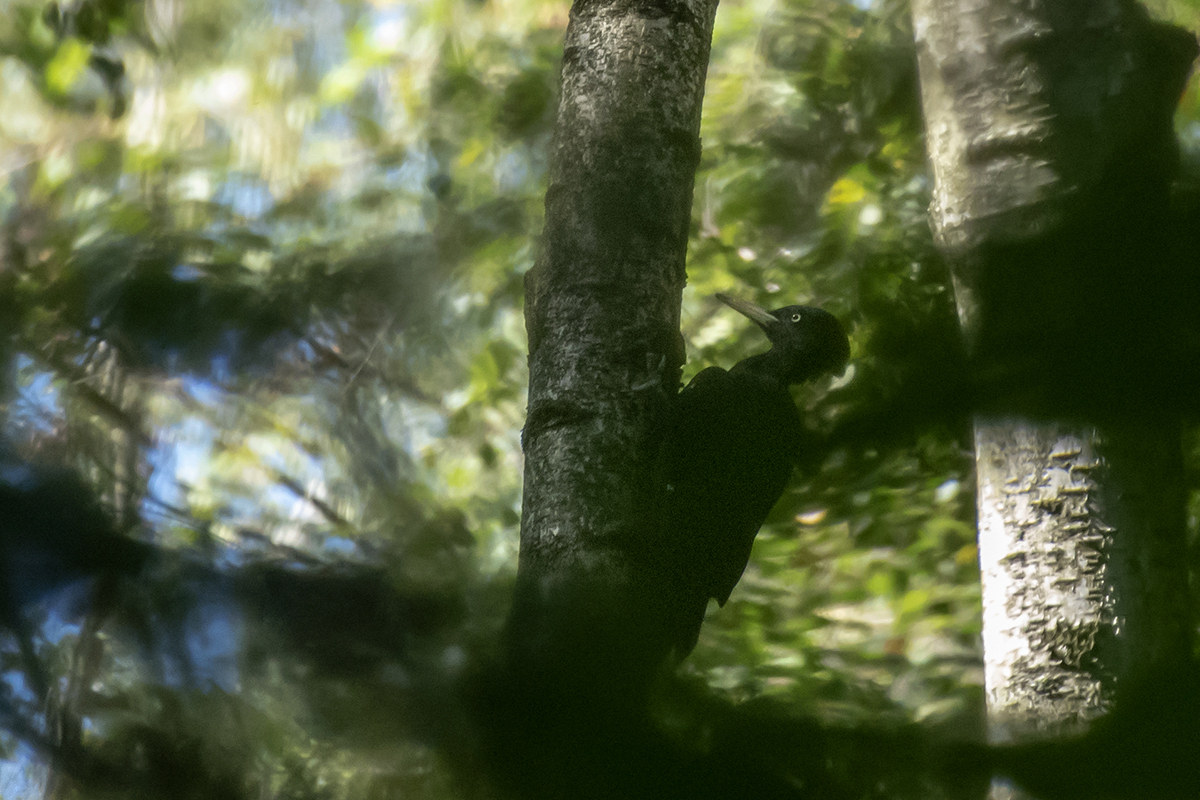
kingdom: Animalia
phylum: Chordata
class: Aves
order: Piciformes
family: Picidae
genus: Dryocopus
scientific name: Dryocopus martius
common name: Black woodpecker
